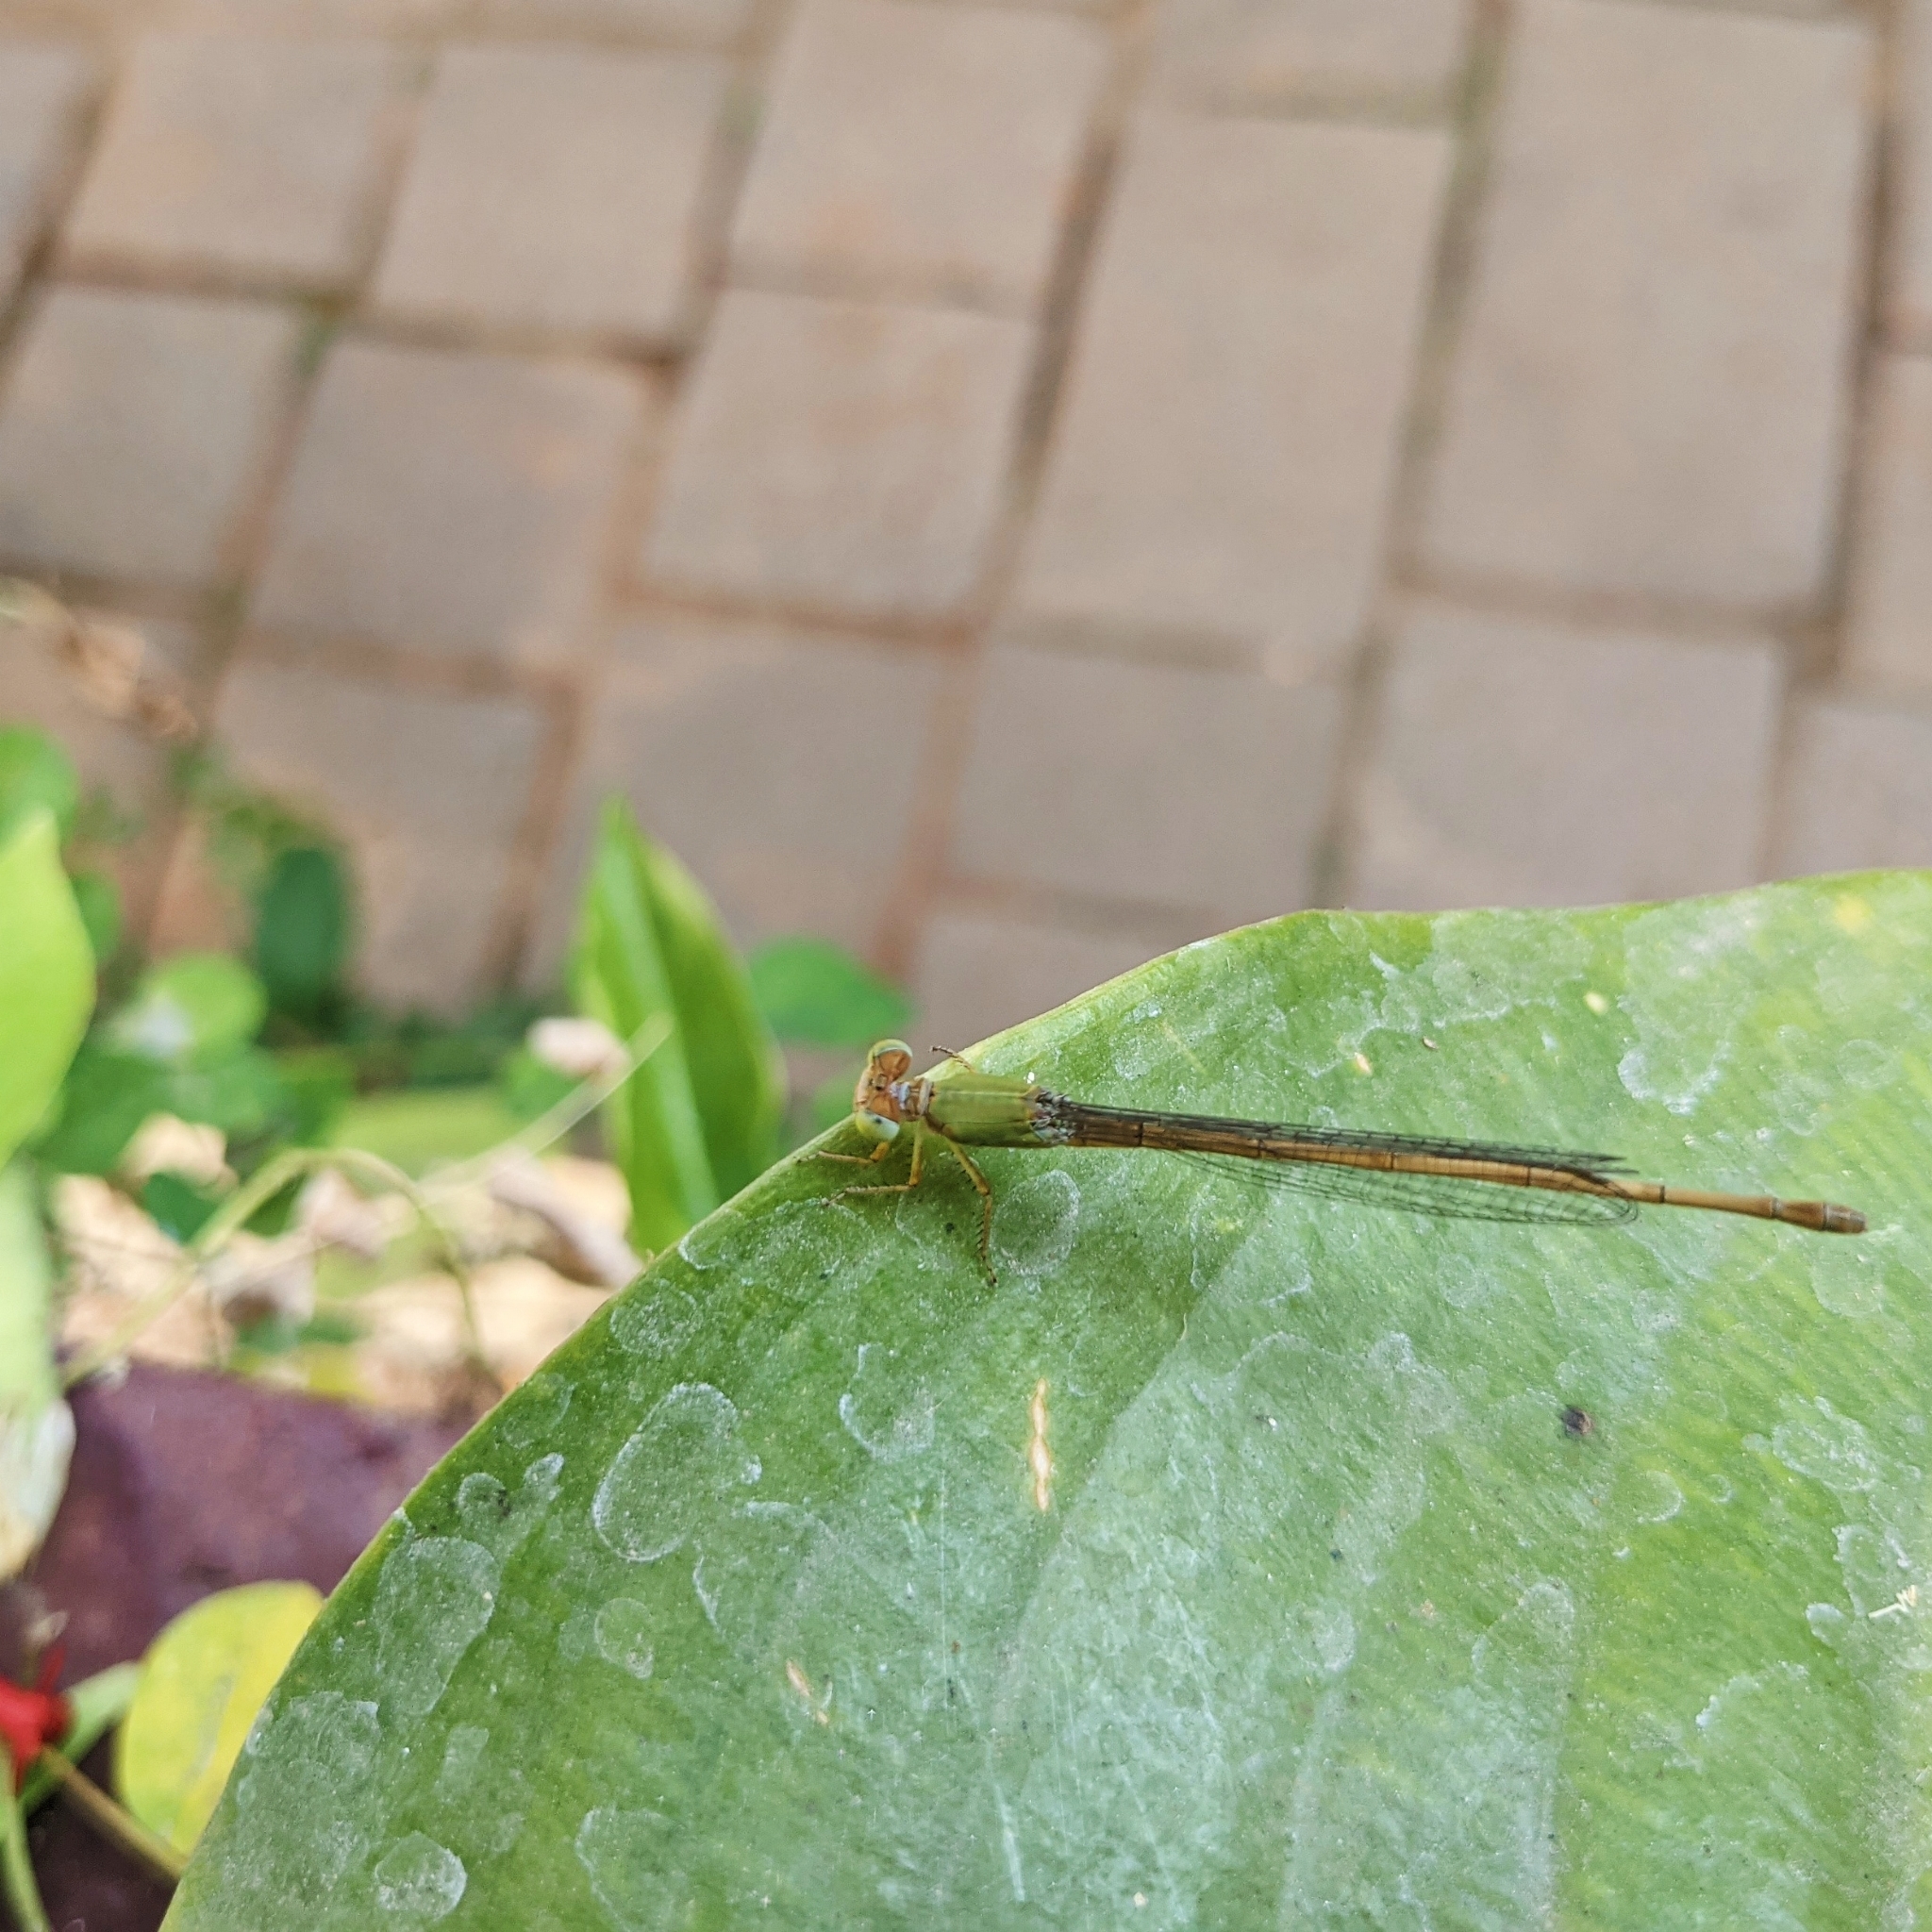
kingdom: Animalia
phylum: Arthropoda
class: Insecta
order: Odonata
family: Coenagrionidae
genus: Ceriagrion
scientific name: Ceriagrion coromandelianum
